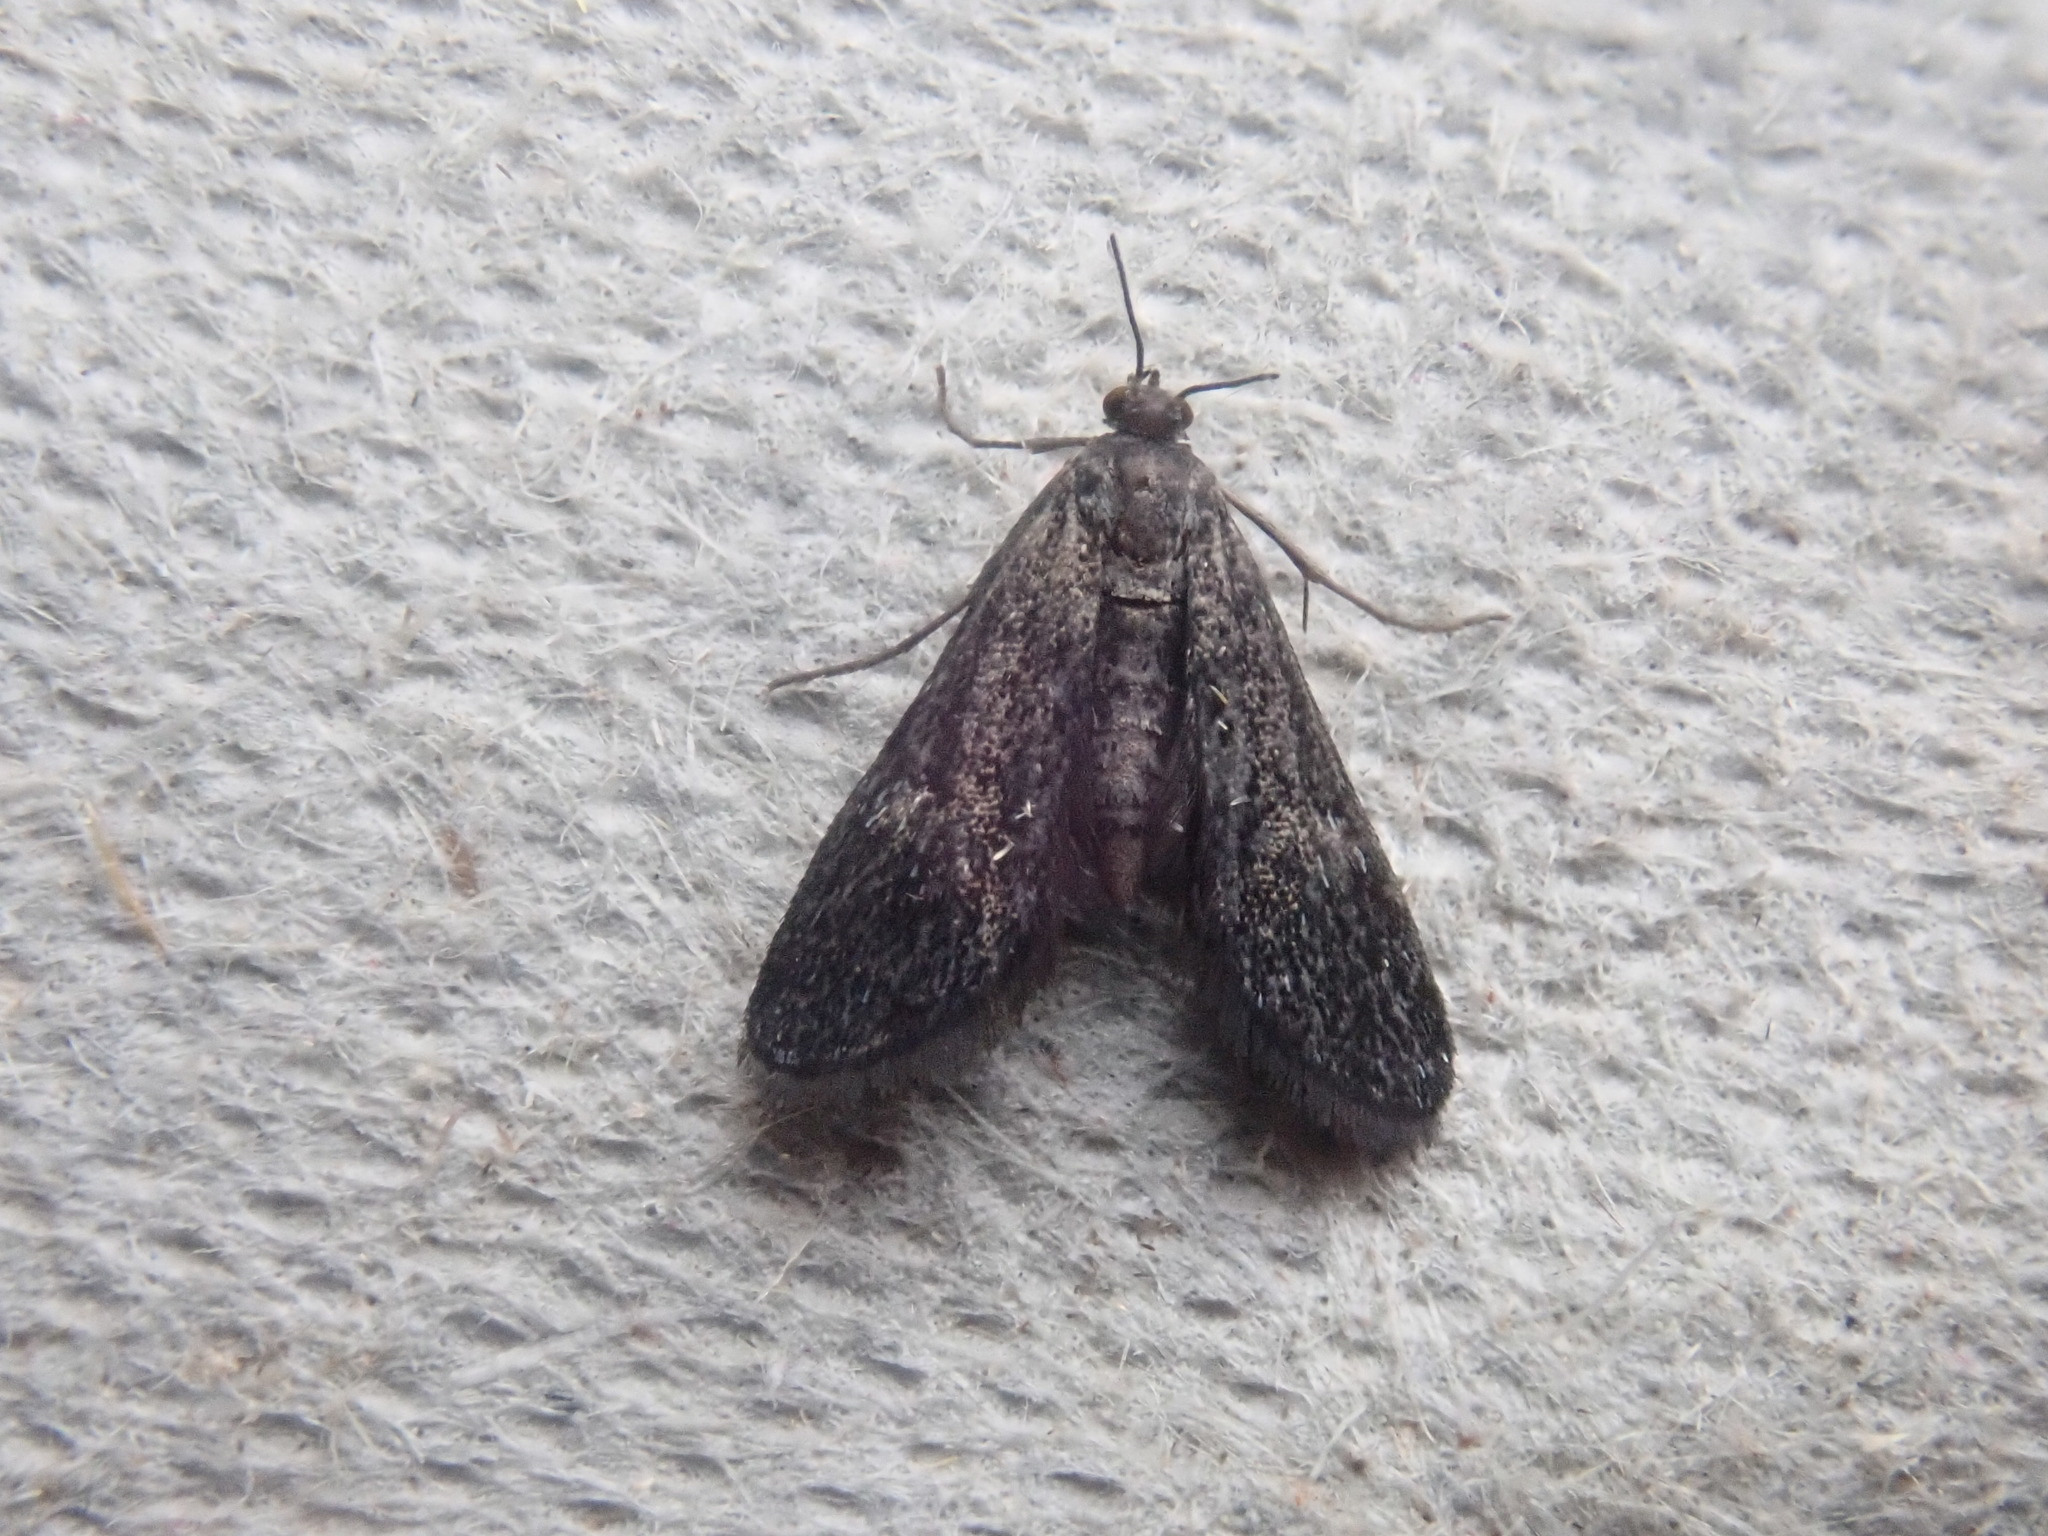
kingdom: Animalia
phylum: Arthropoda
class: Insecta
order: Lepidoptera
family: Crambidae
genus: Elophila
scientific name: Elophila tinealis
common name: Black duckweed moth
